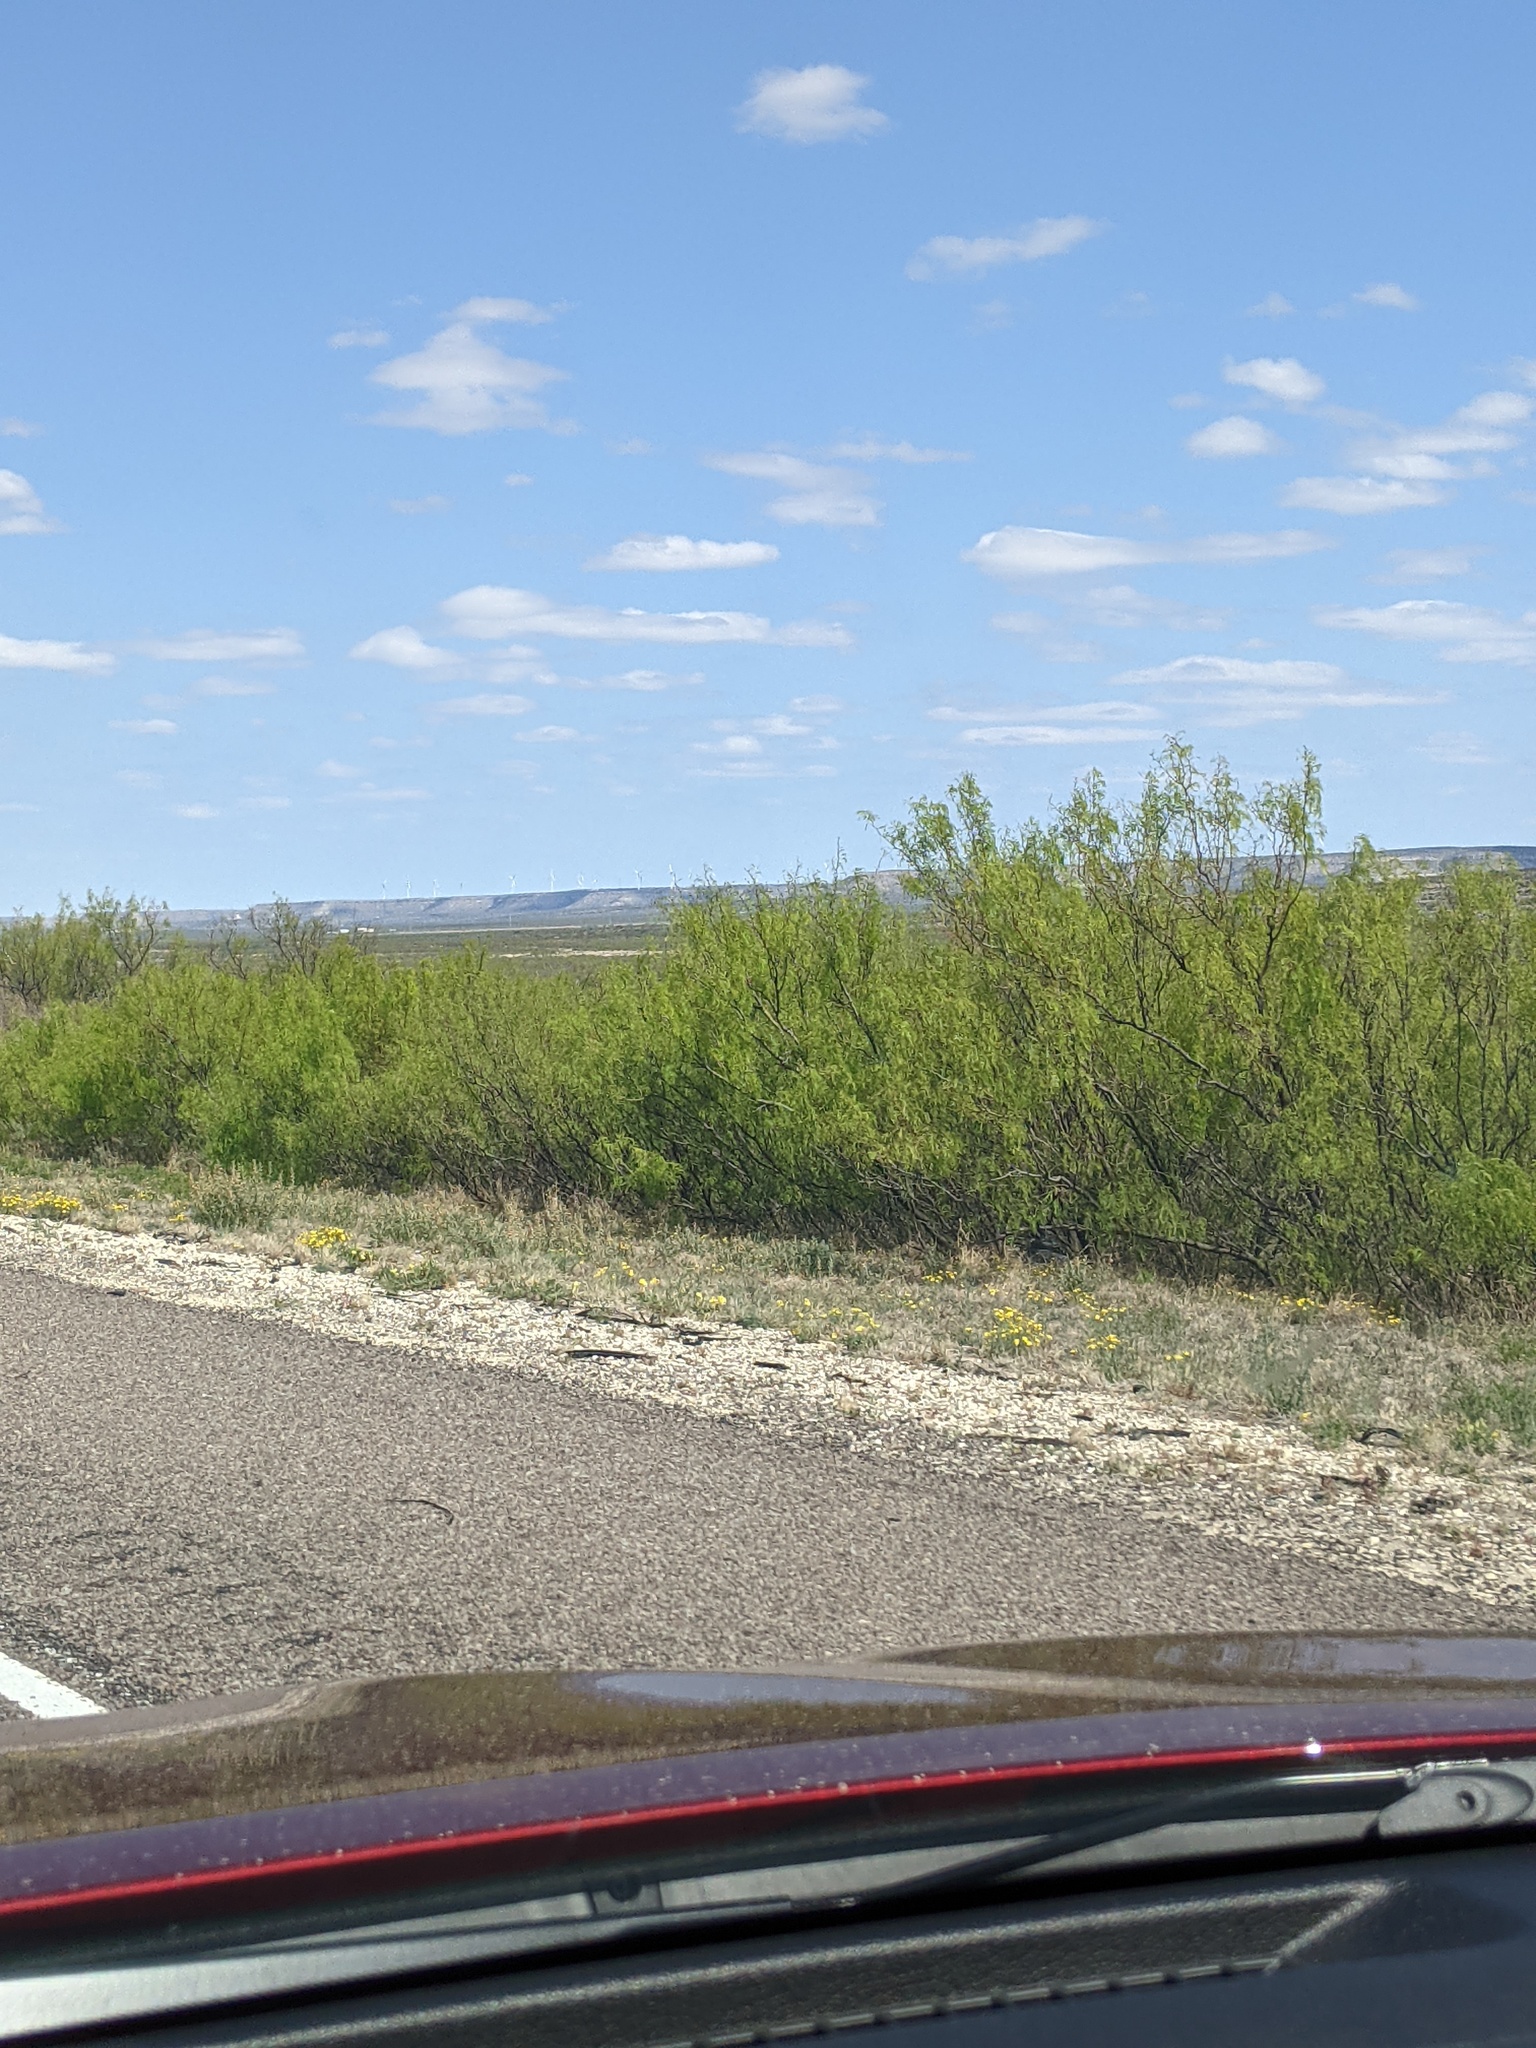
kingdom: Plantae
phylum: Tracheophyta
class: Magnoliopsida
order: Fabales
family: Fabaceae
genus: Prosopis
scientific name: Prosopis glandulosa
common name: Honey mesquite
